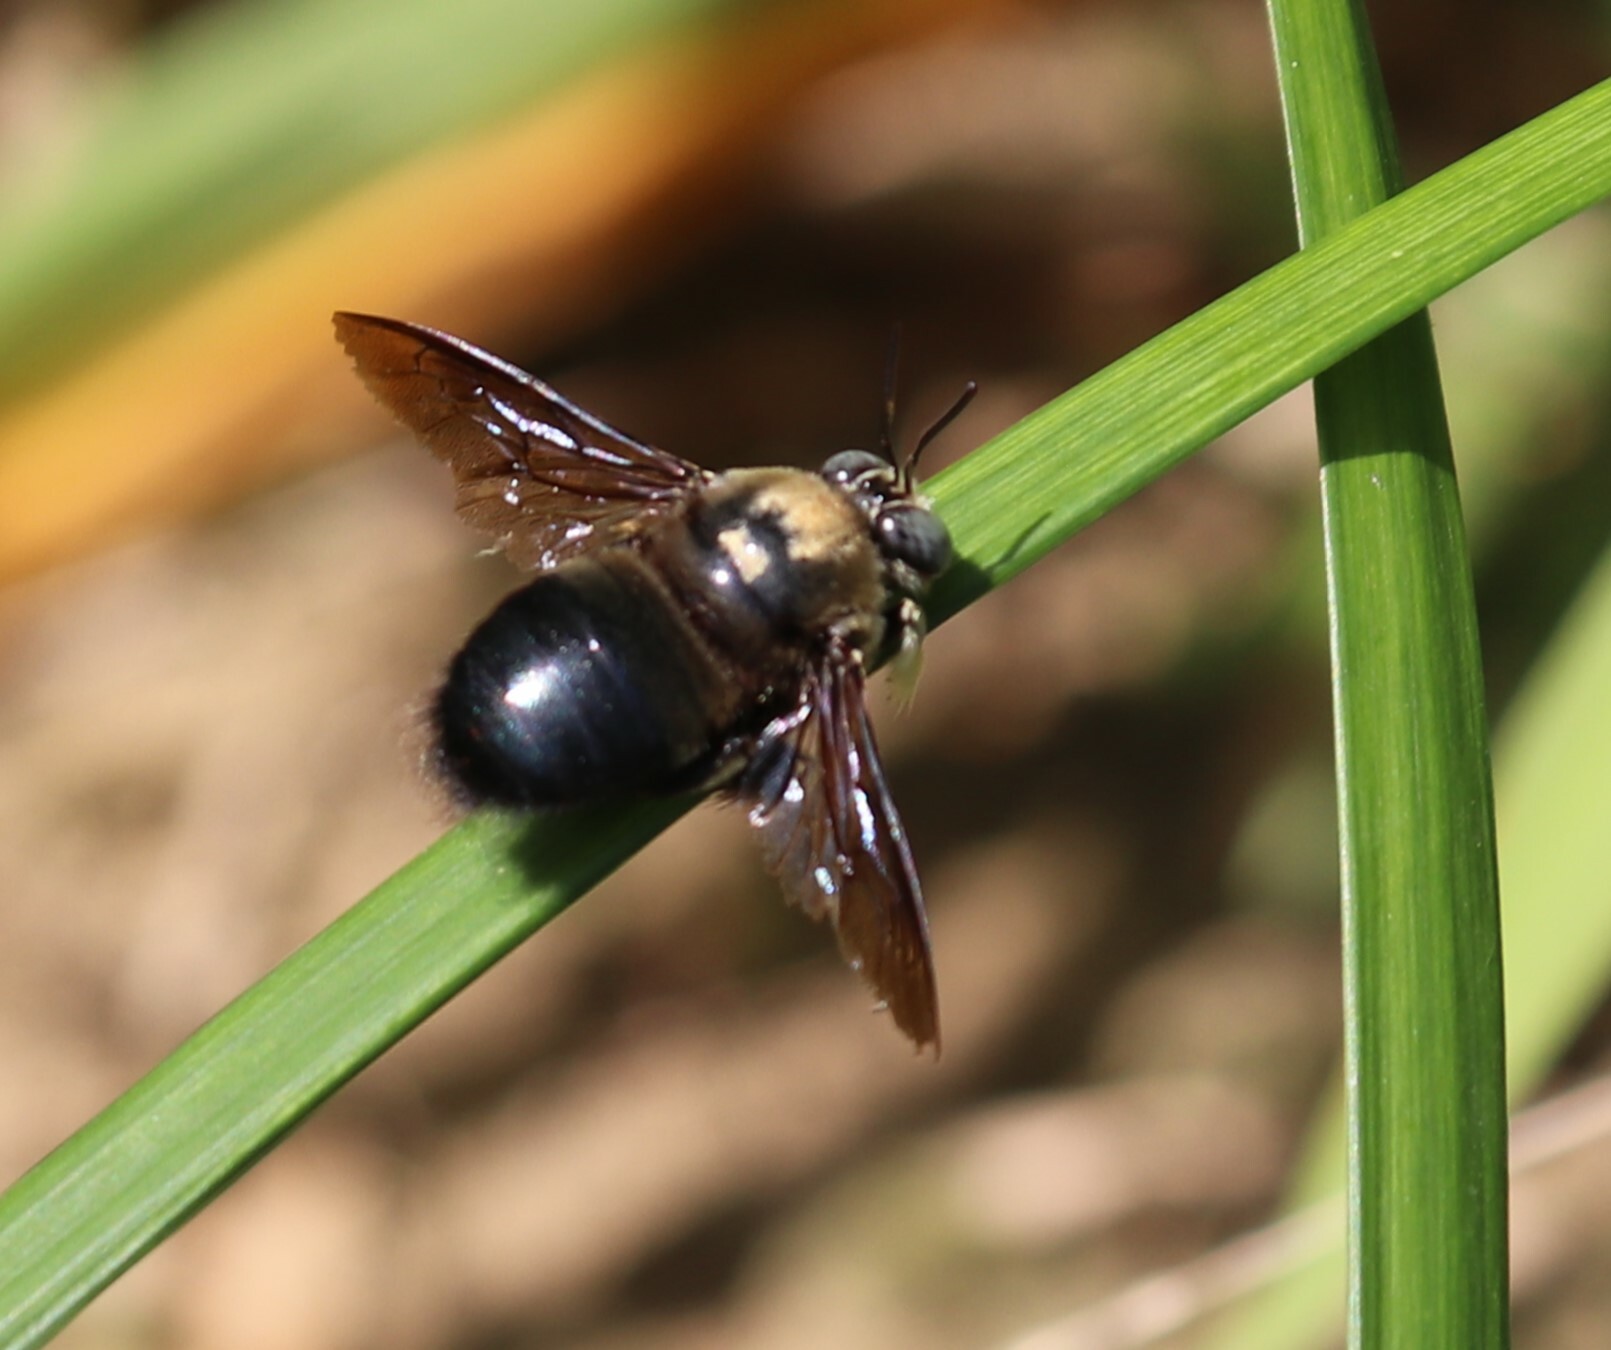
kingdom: Animalia
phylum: Arthropoda
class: Insecta
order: Hymenoptera
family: Apidae
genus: Xylocopa
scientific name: Xylocopa fuliginata
